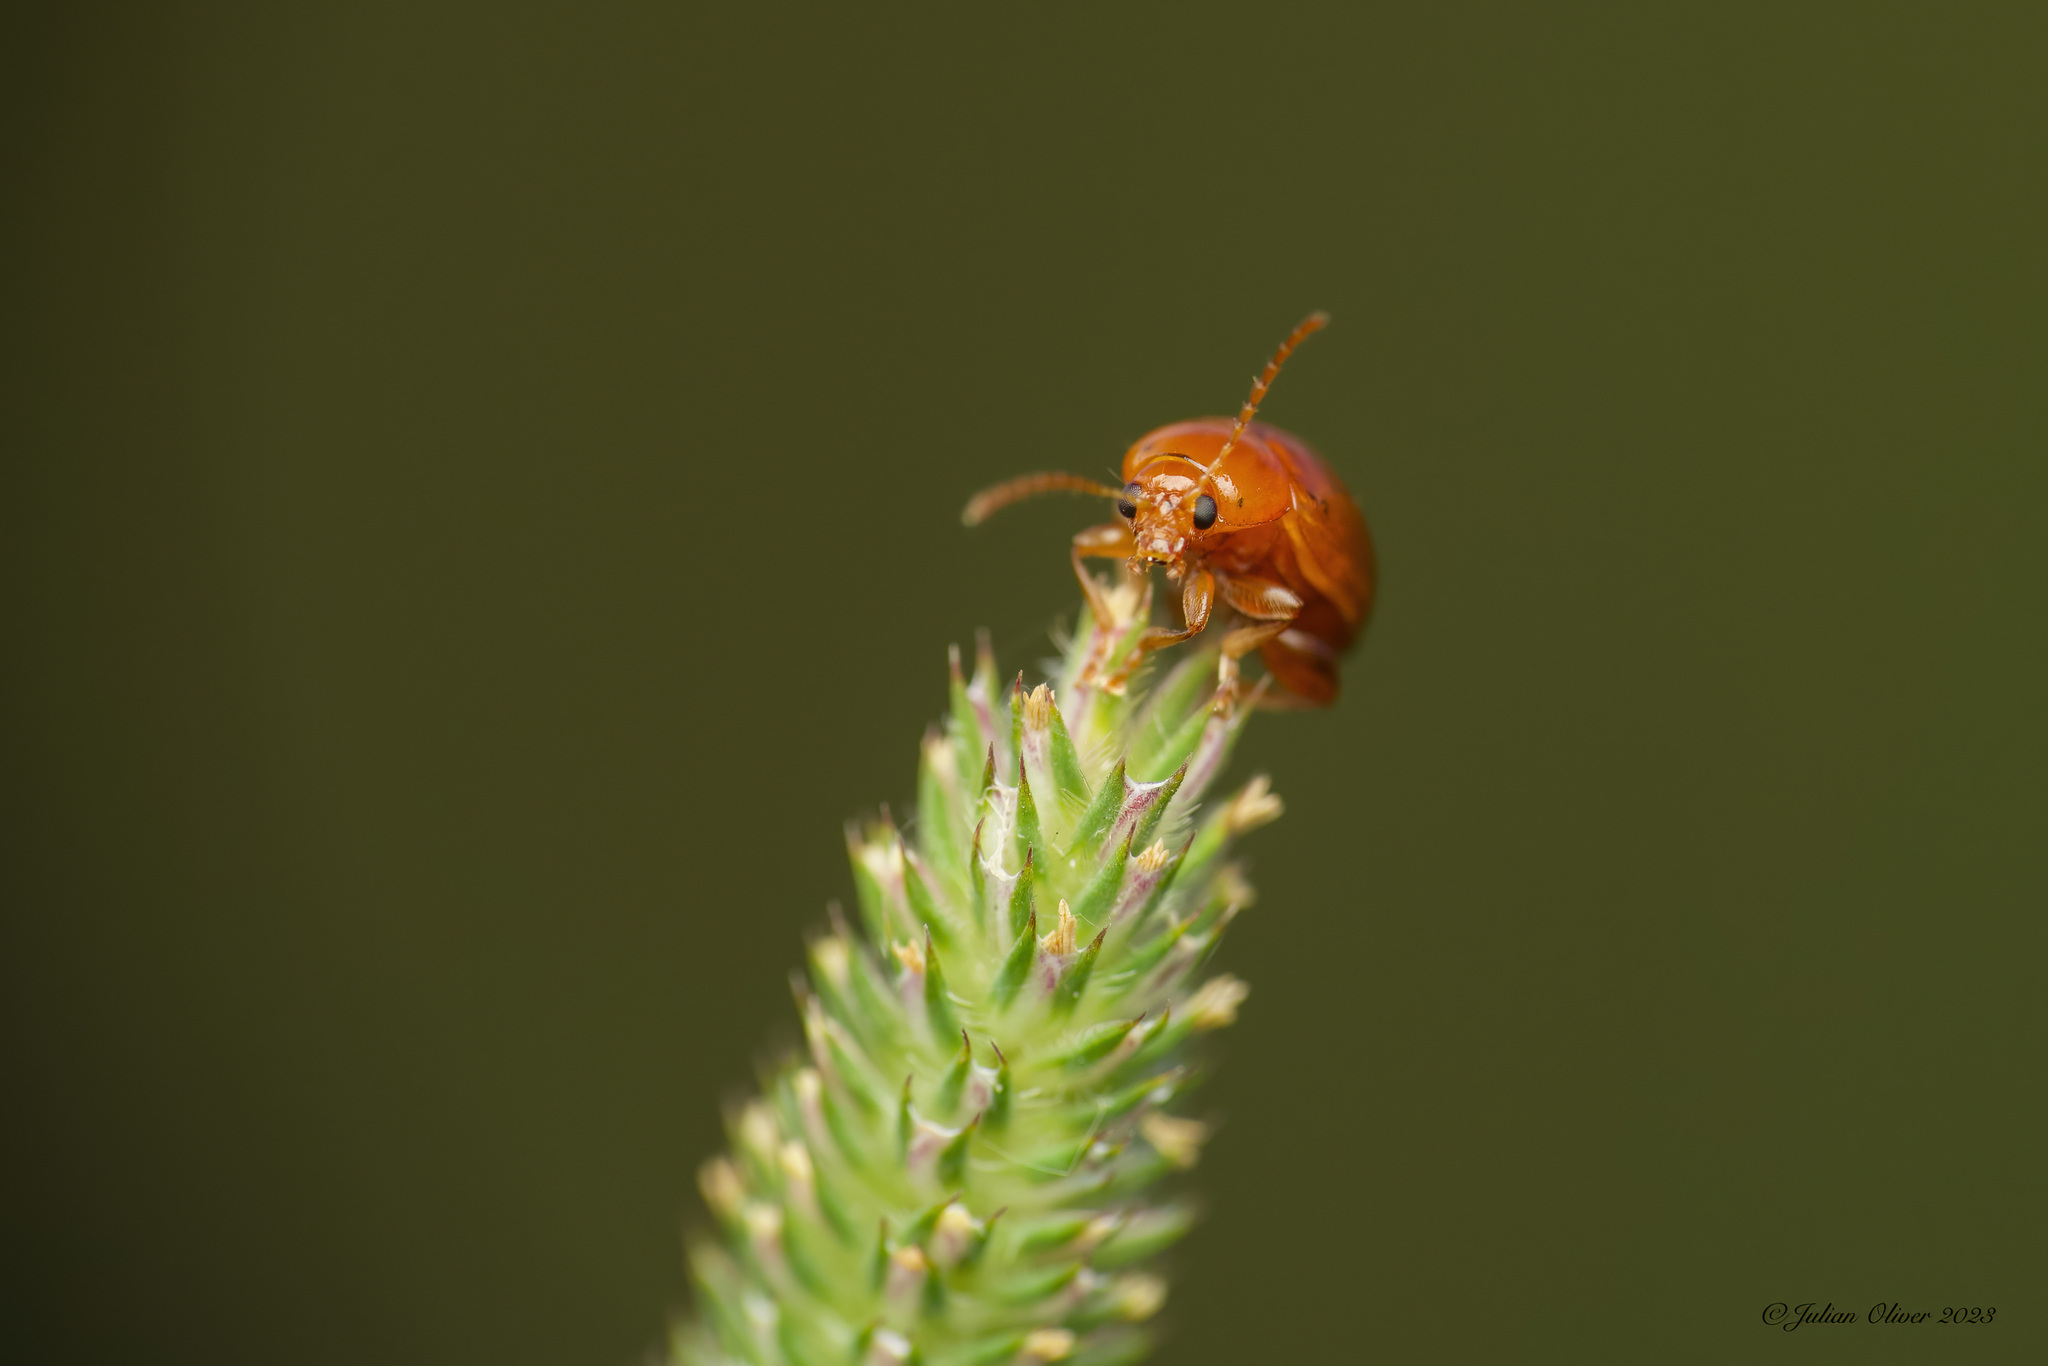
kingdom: Animalia
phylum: Arthropoda
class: Insecta
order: Coleoptera
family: Chrysomelidae
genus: Pistosia
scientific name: Pistosia testacea
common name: Leaf beetle
